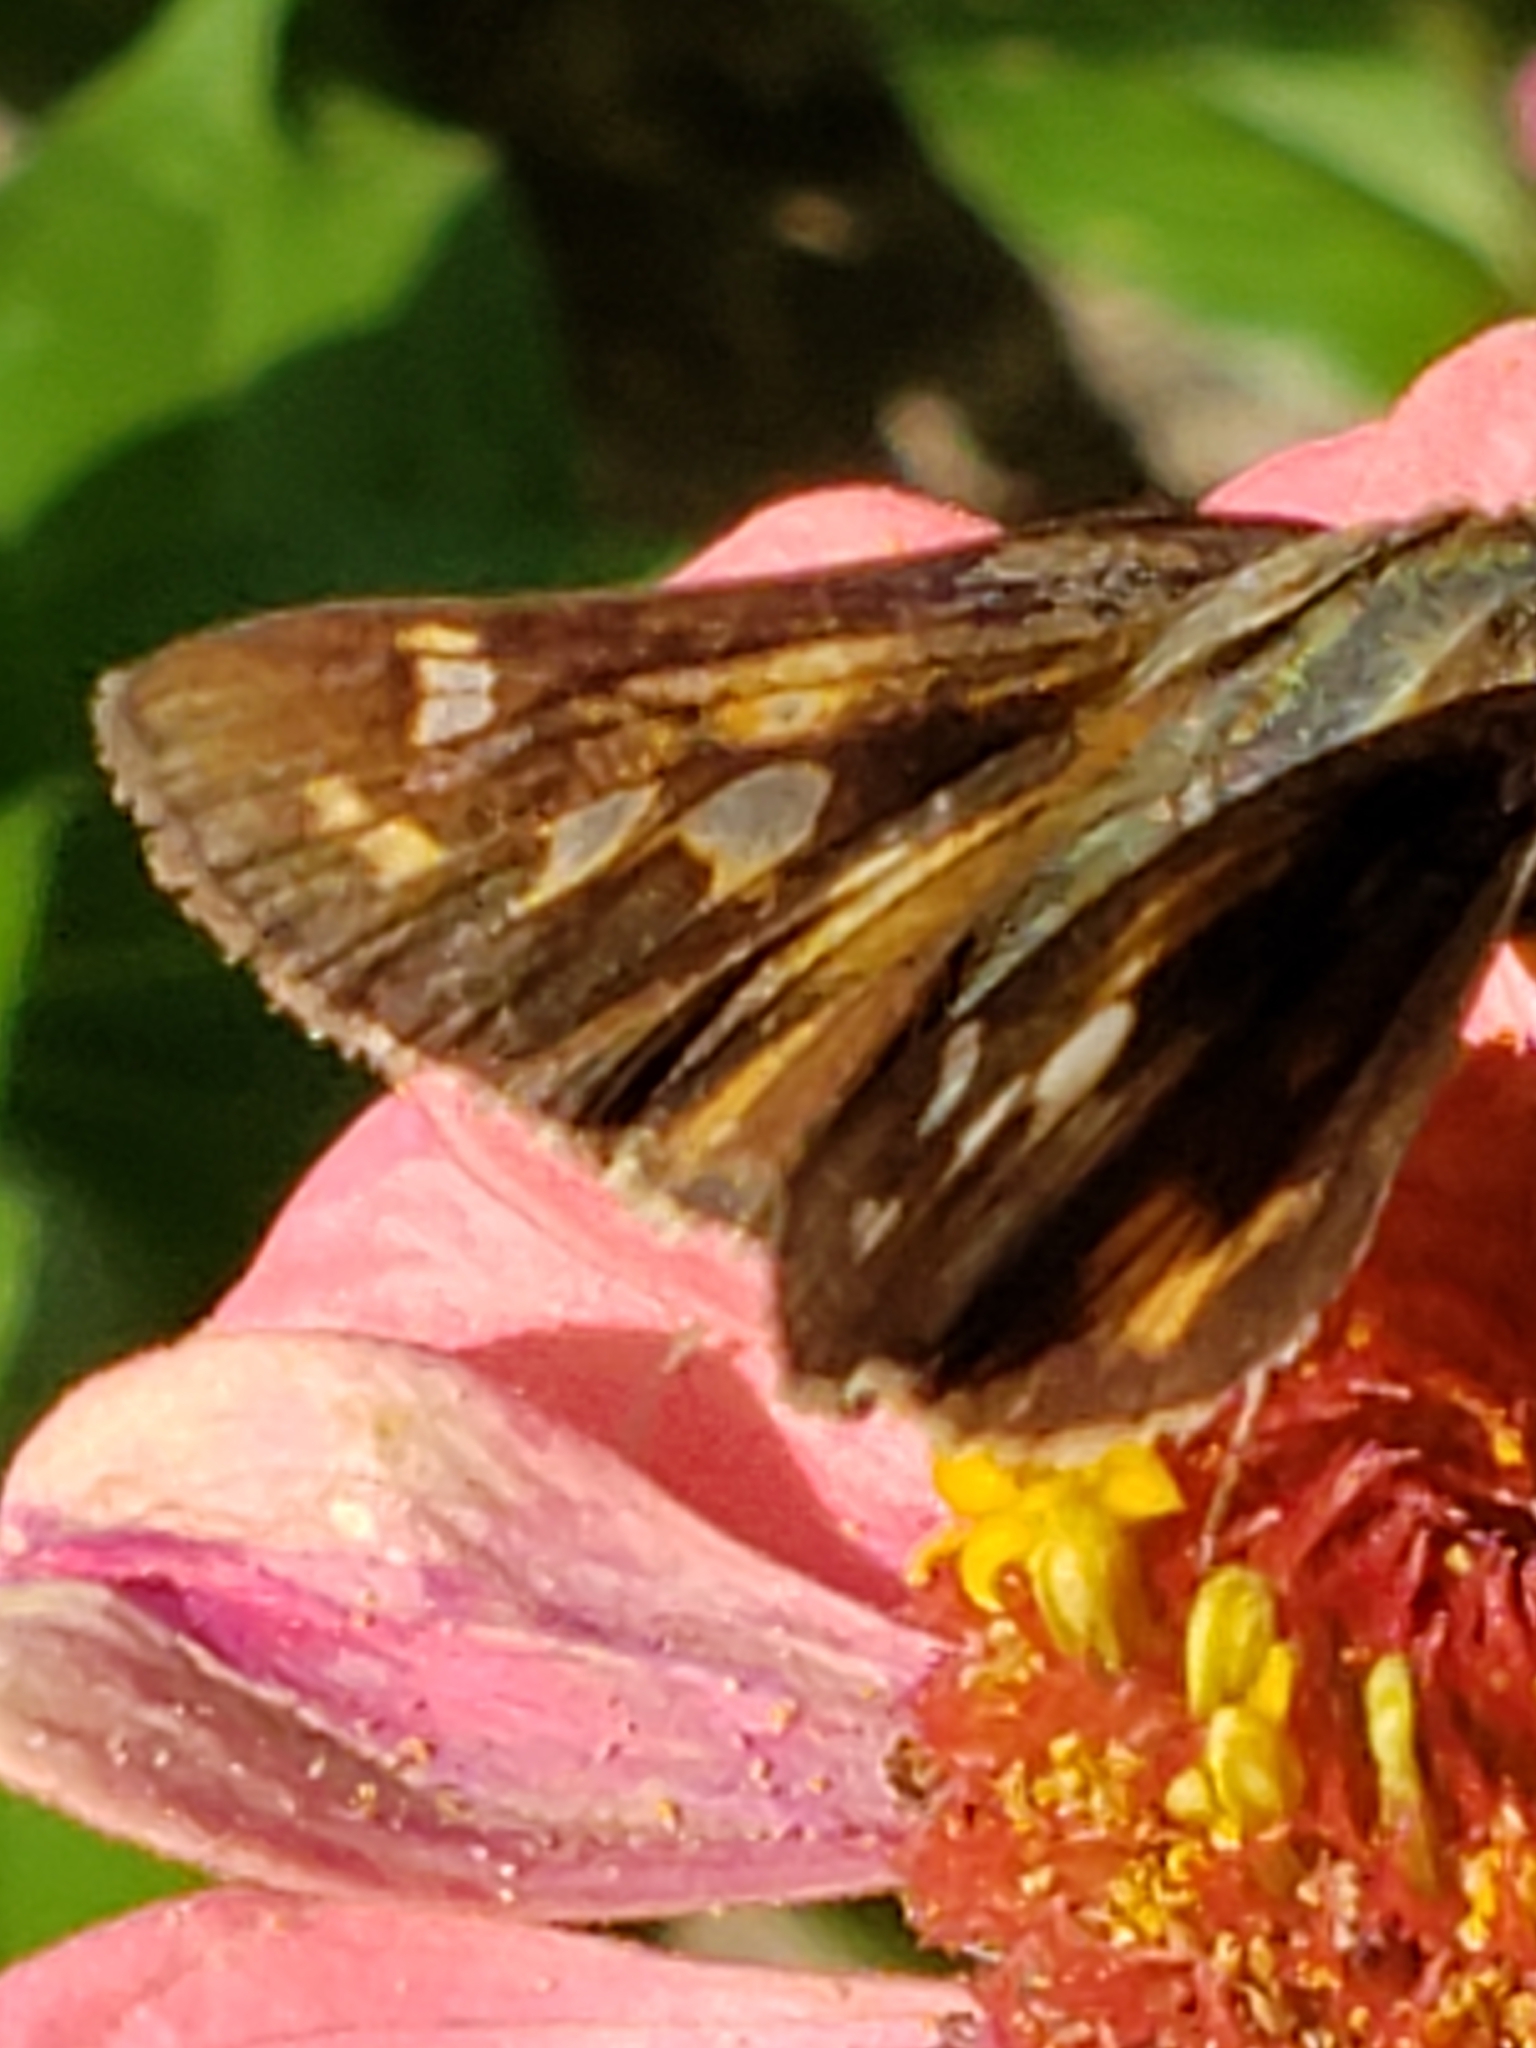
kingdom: Animalia
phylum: Arthropoda
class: Insecta
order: Lepidoptera
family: Hesperiidae
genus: Atalopedes
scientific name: Atalopedes
